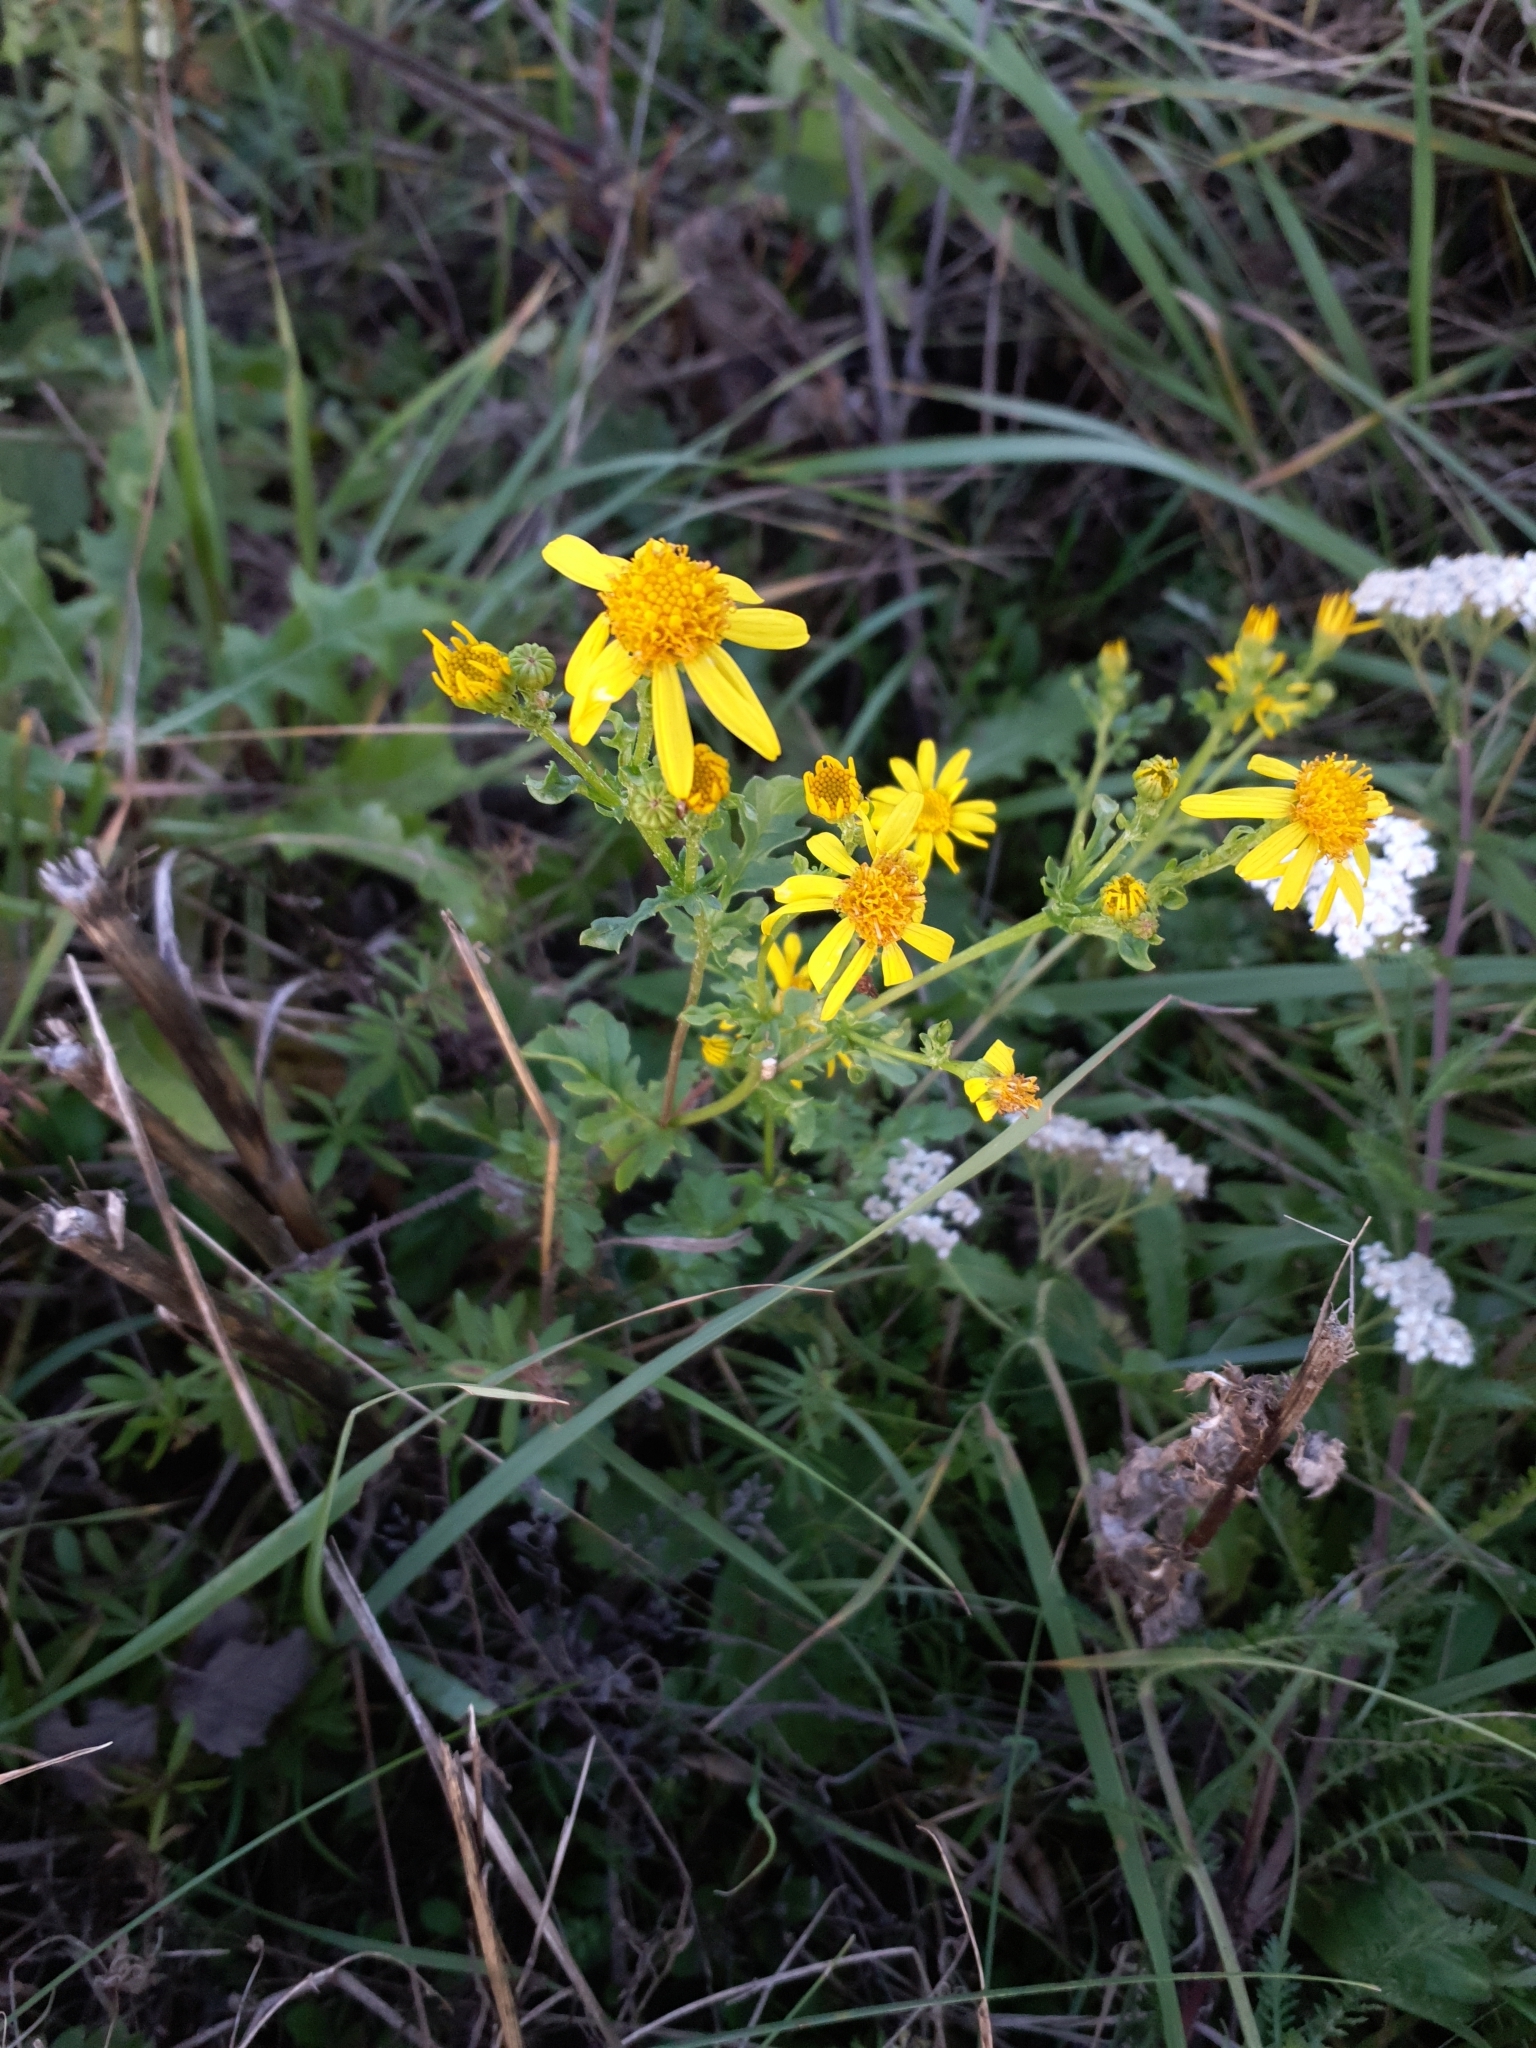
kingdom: Plantae
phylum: Tracheophyta
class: Magnoliopsida
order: Asterales
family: Asteraceae
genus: Jacobaea
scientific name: Jacobaea vulgaris
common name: Stinking willie
